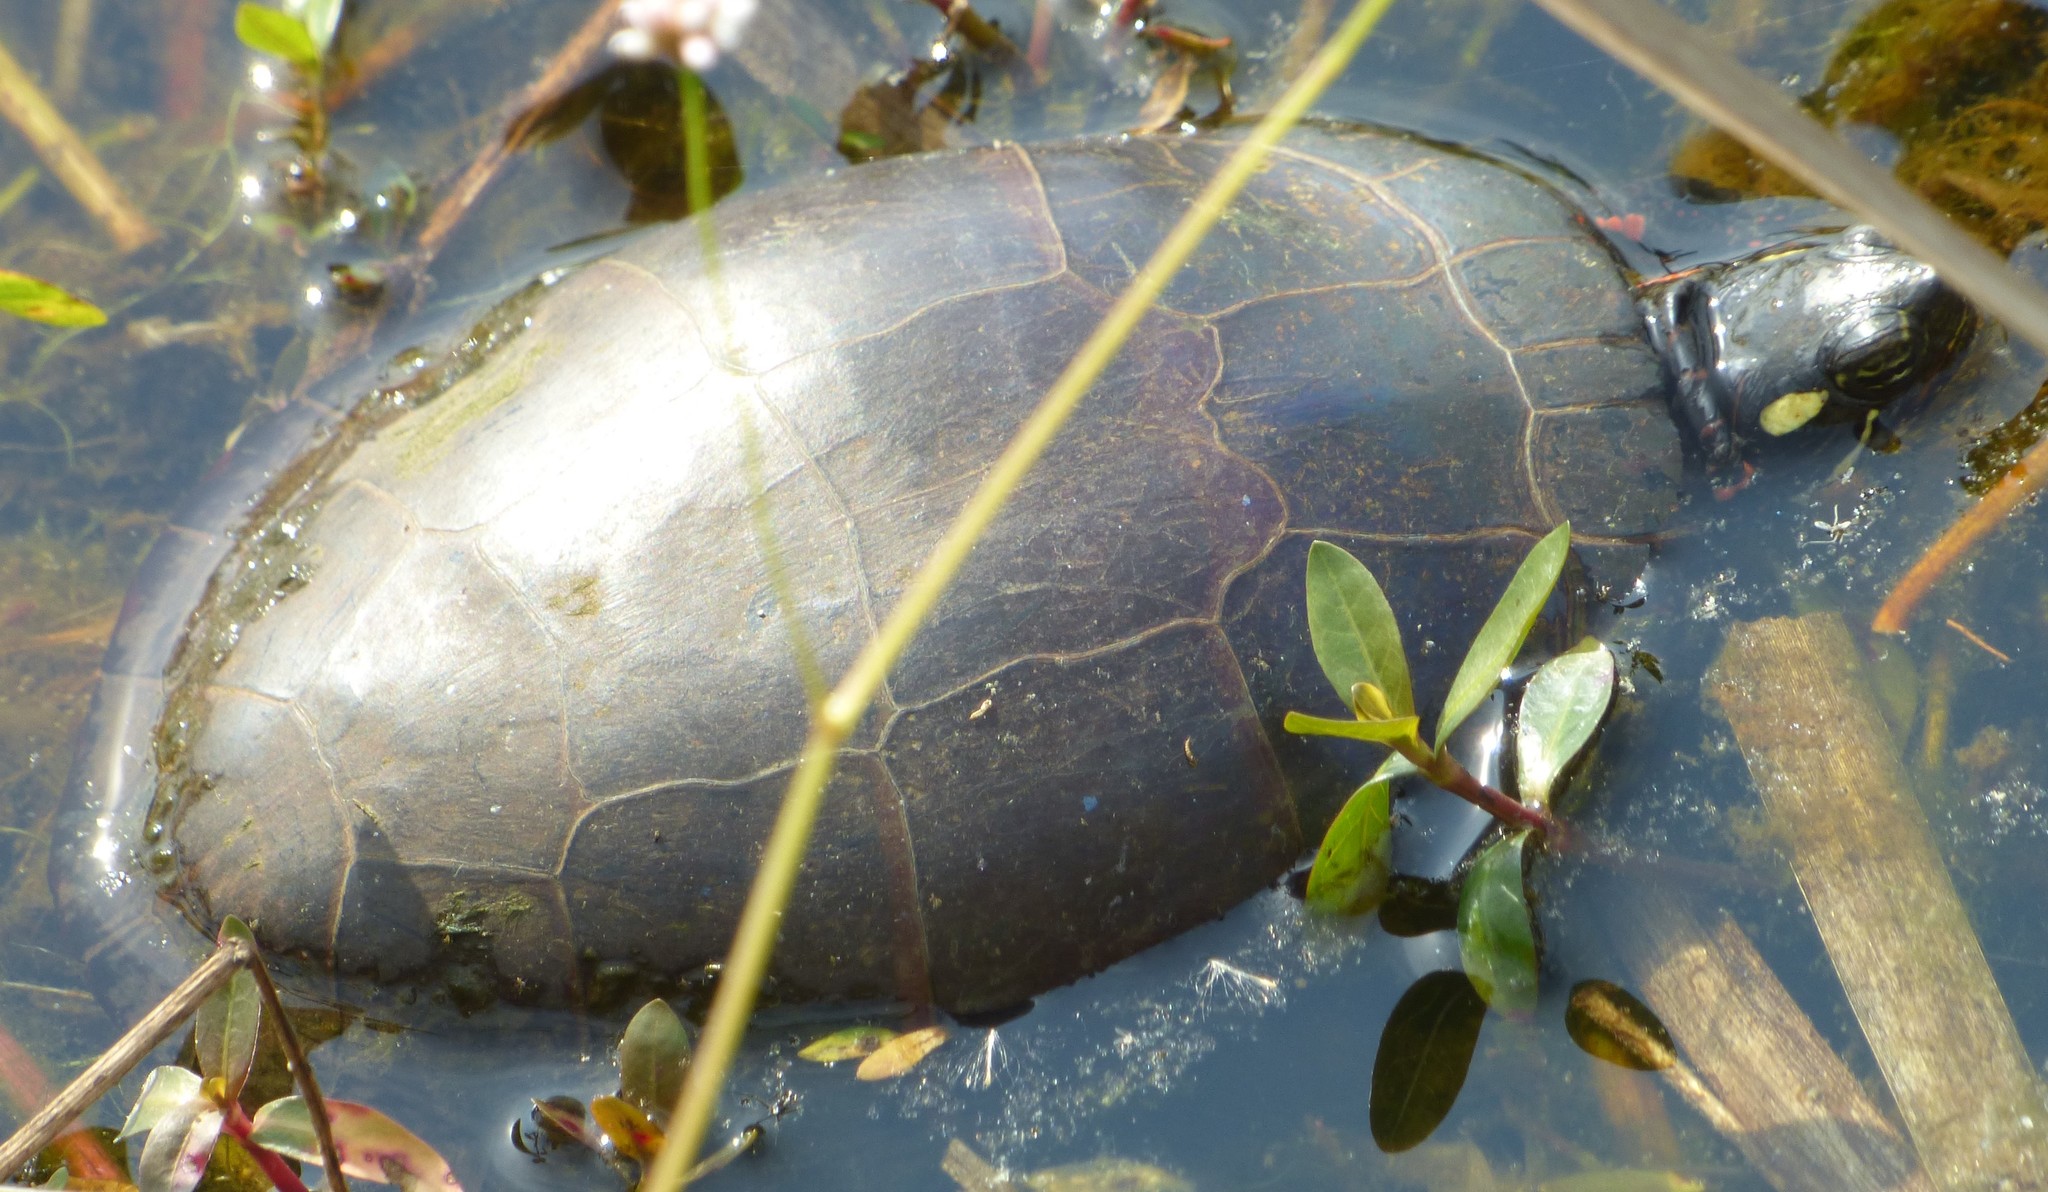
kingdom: Animalia
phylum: Chordata
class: Testudines
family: Emydidae
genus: Chrysemys
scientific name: Chrysemys picta
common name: Painted turtle
